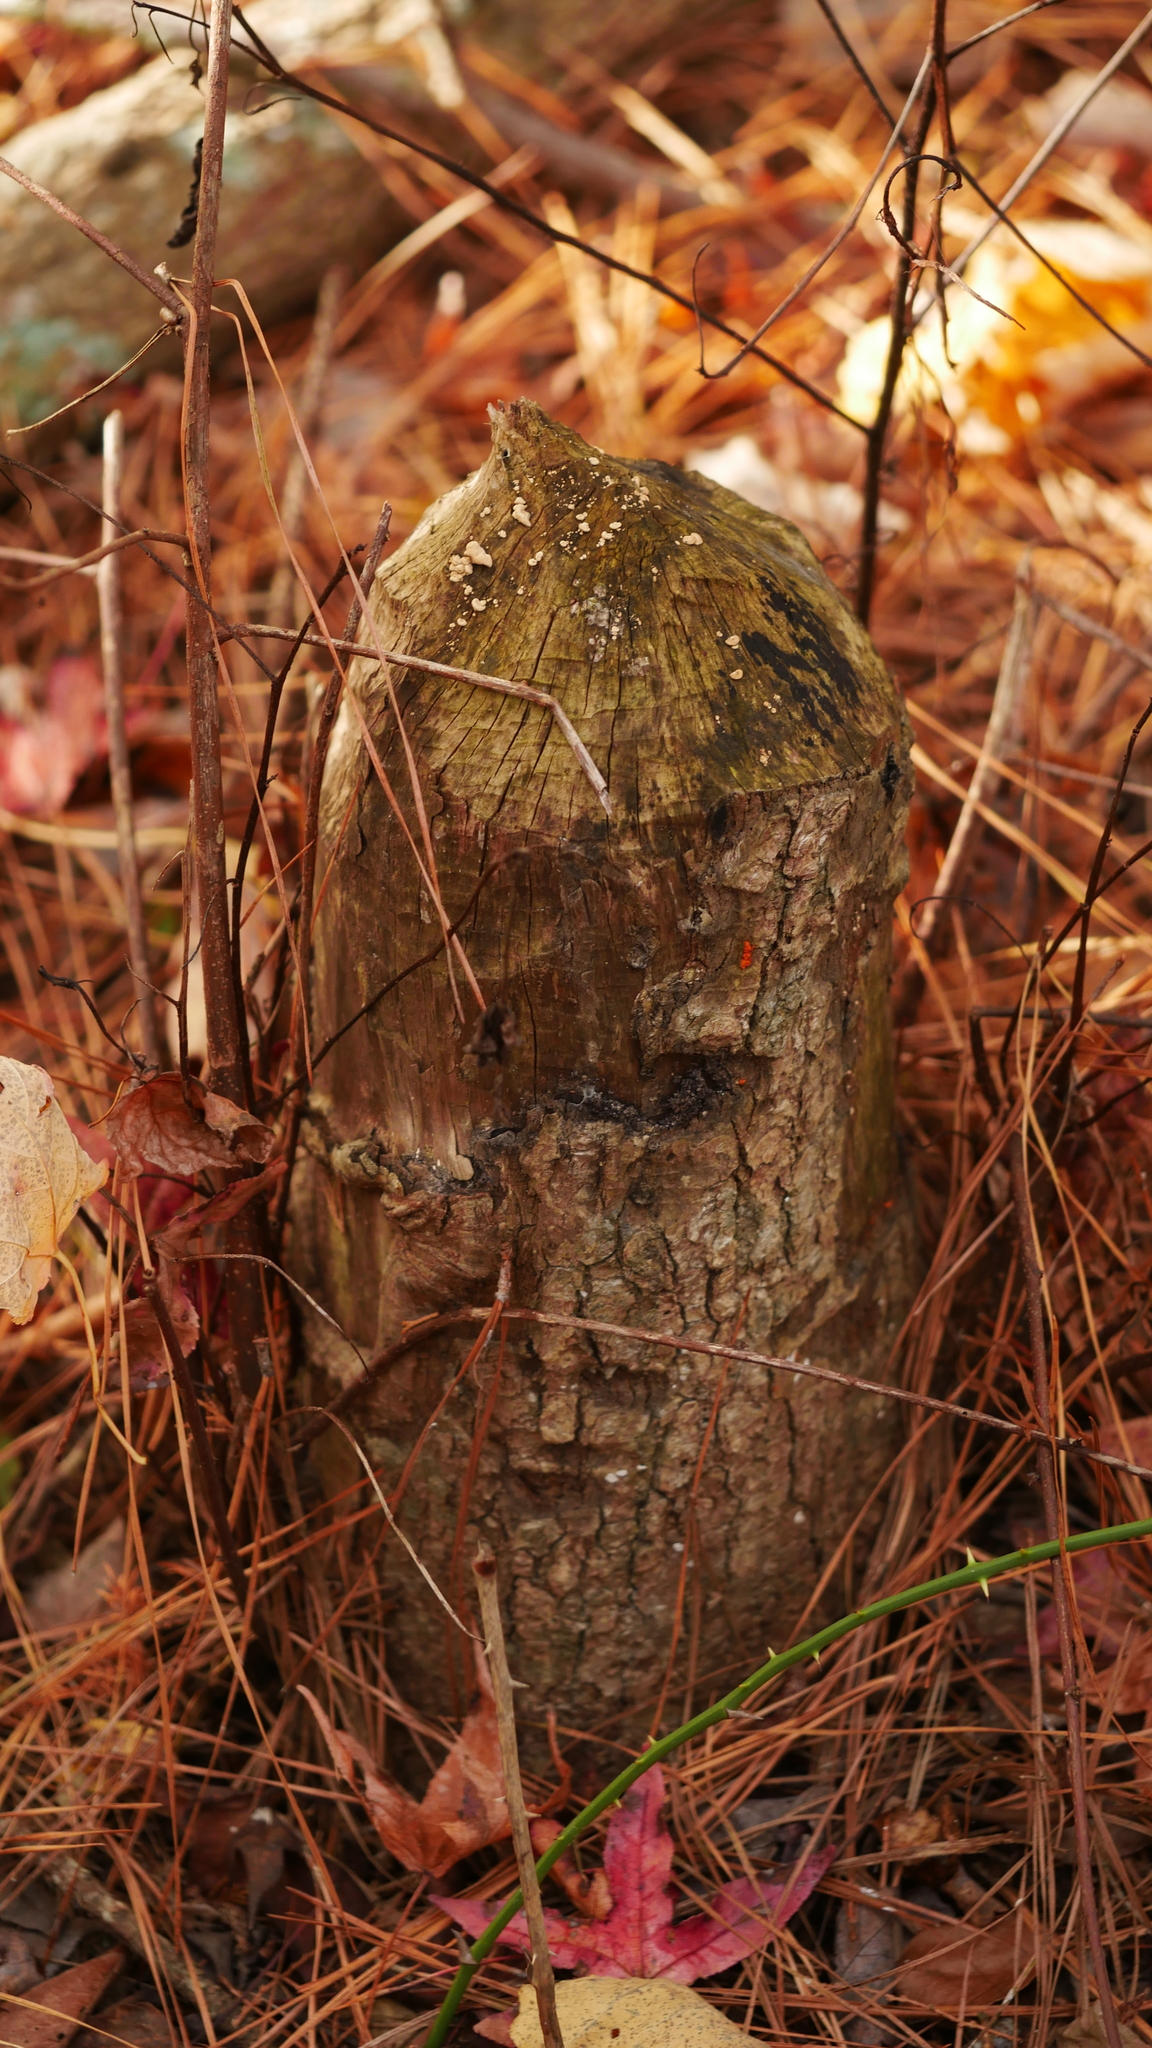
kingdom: Animalia
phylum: Chordata
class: Mammalia
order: Rodentia
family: Castoridae
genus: Castor
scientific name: Castor canadensis
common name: American beaver
